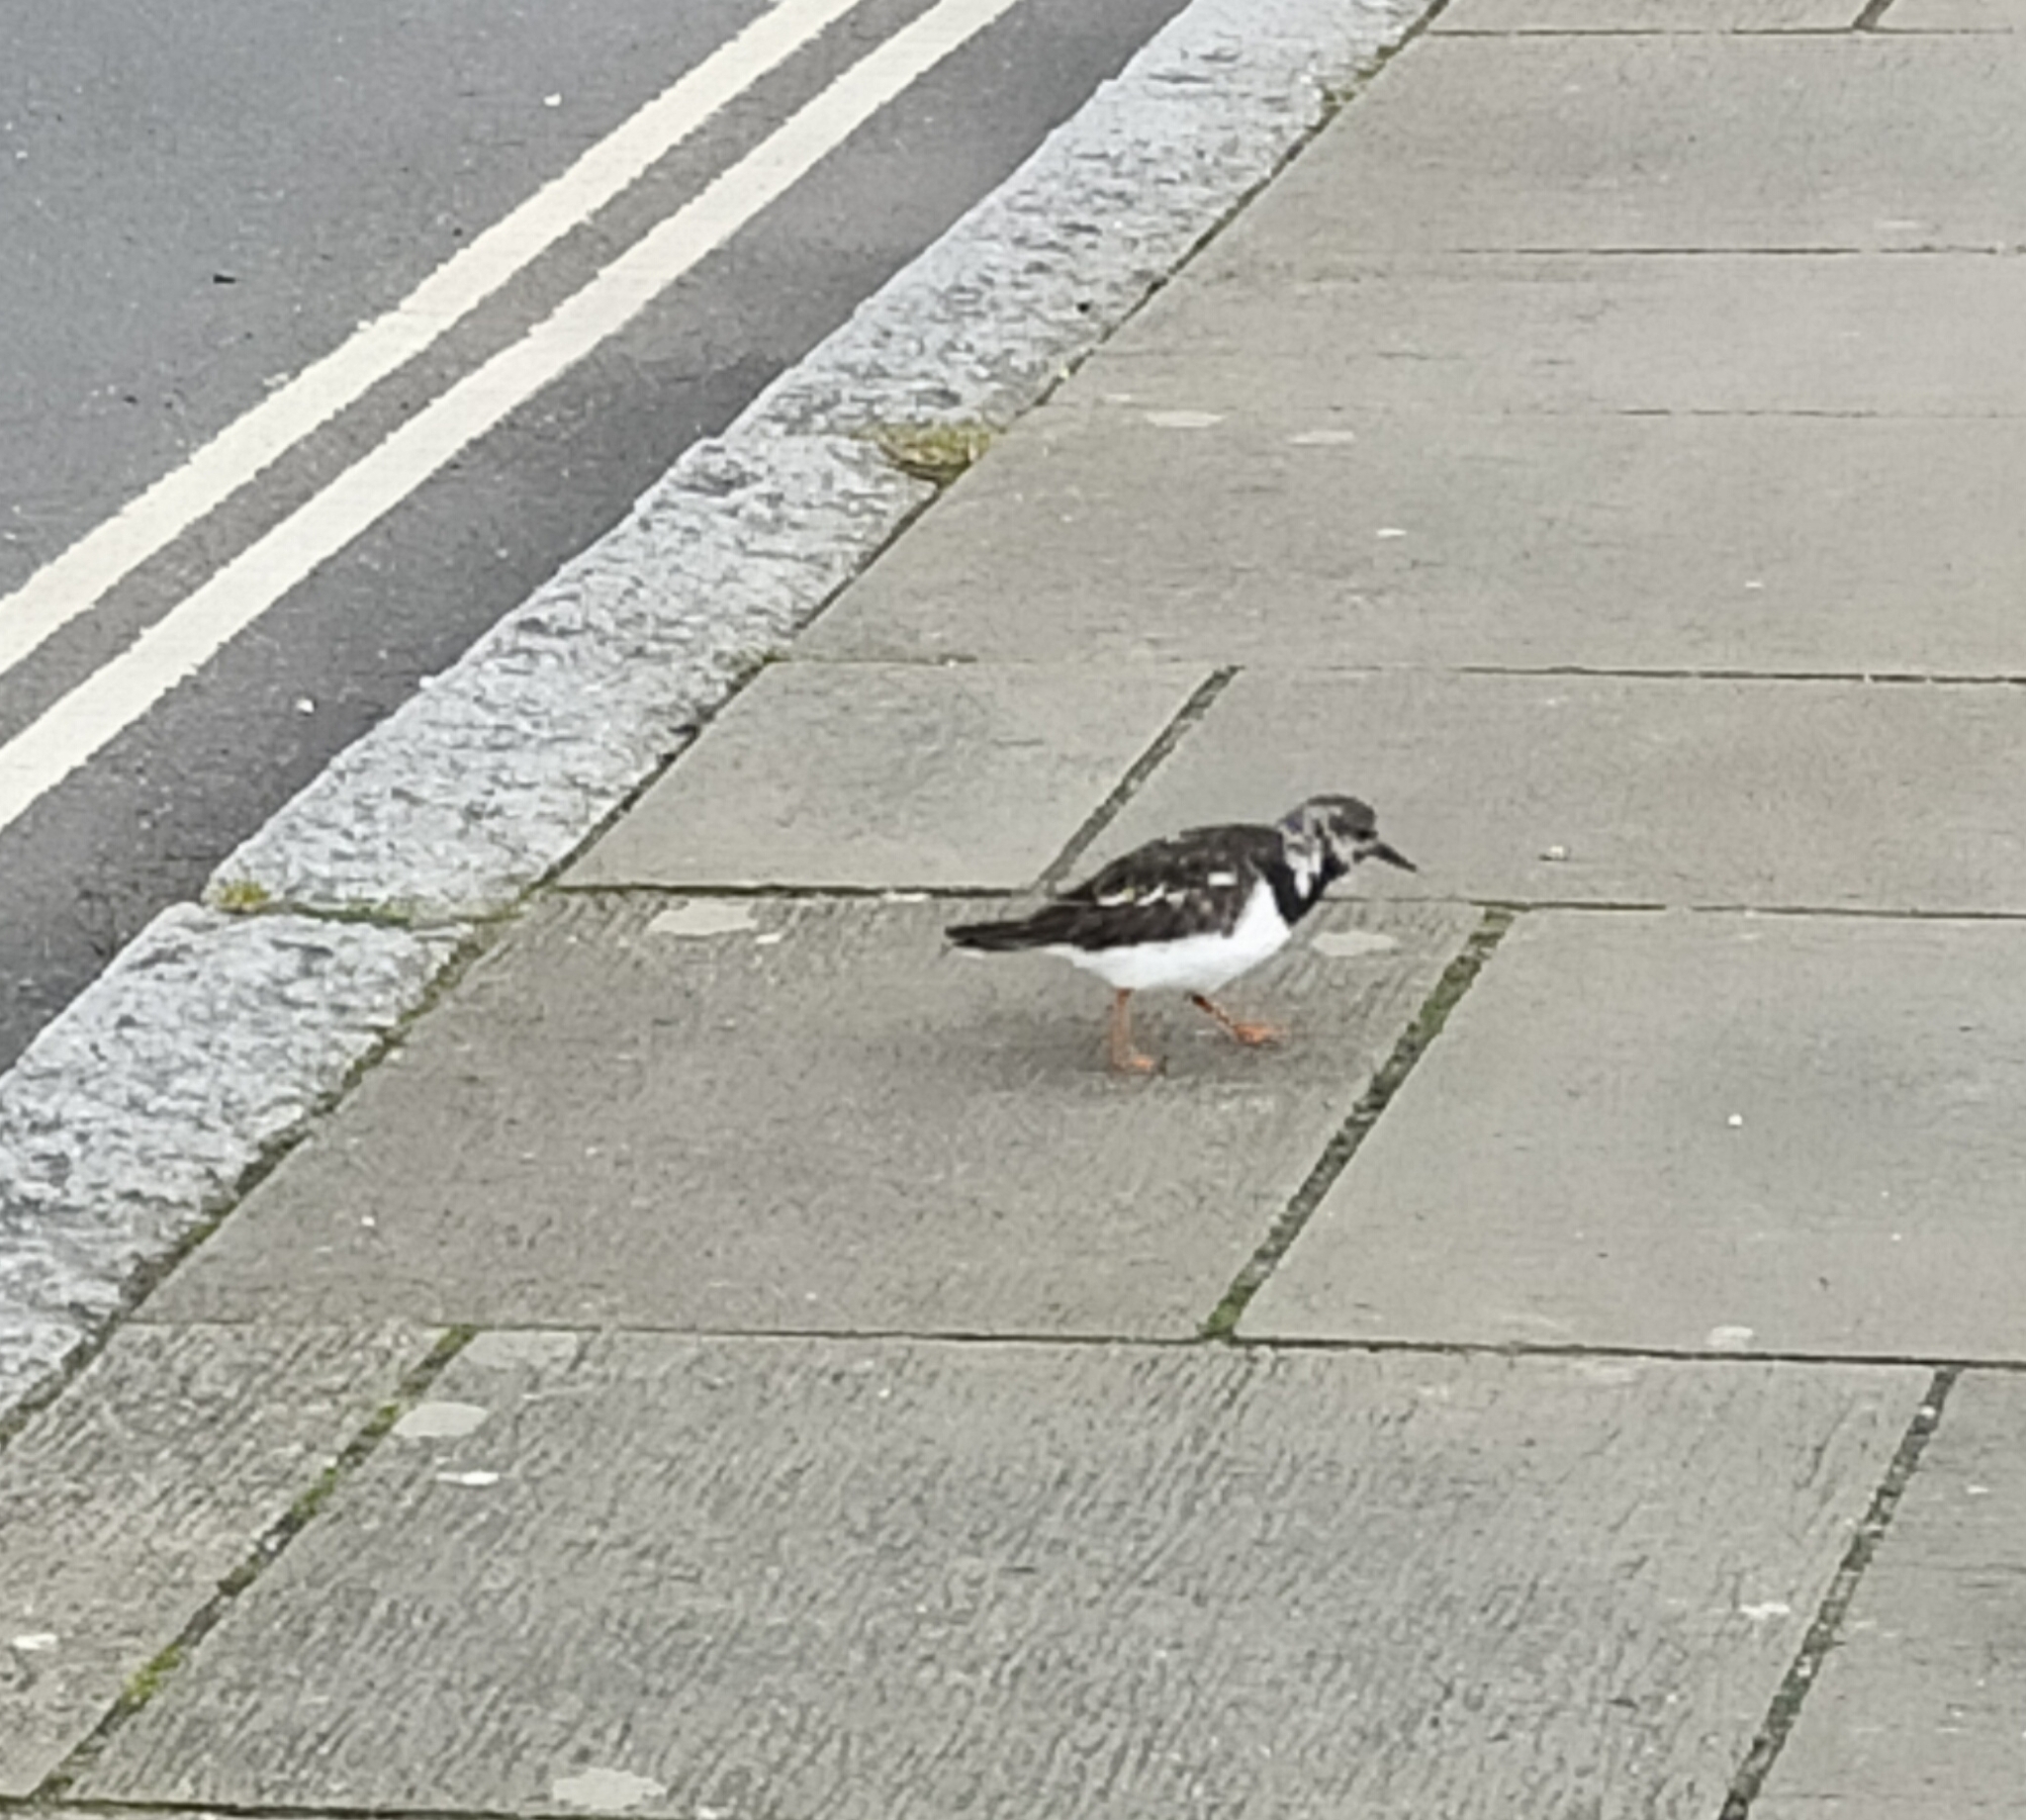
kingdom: Animalia
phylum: Chordata
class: Aves
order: Charadriiformes
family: Scolopacidae
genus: Arenaria
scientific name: Arenaria interpres
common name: Ruddy turnstone
